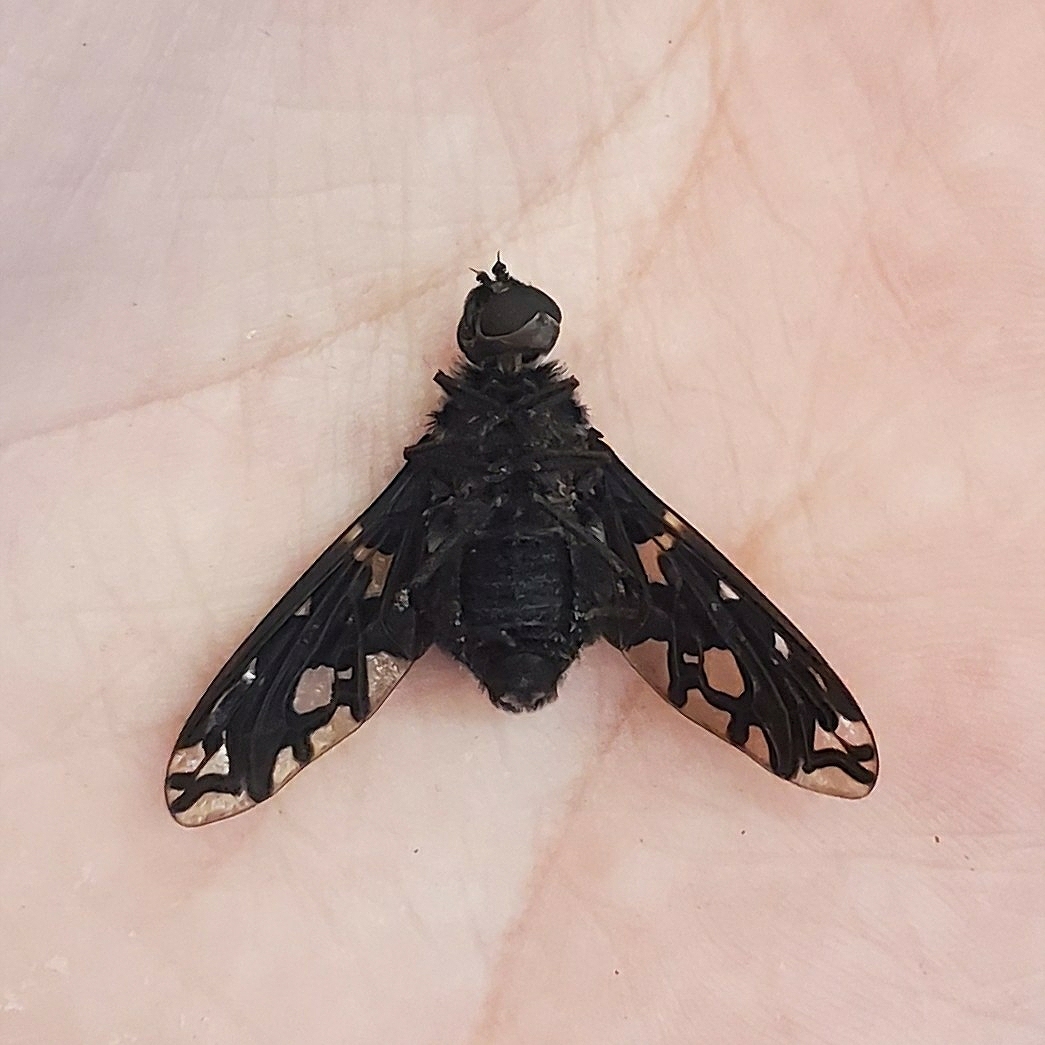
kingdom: Animalia
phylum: Arthropoda
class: Insecta
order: Diptera
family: Bombyliidae
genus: Xenox
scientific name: Xenox tigrinus
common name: Tiger bee fly
